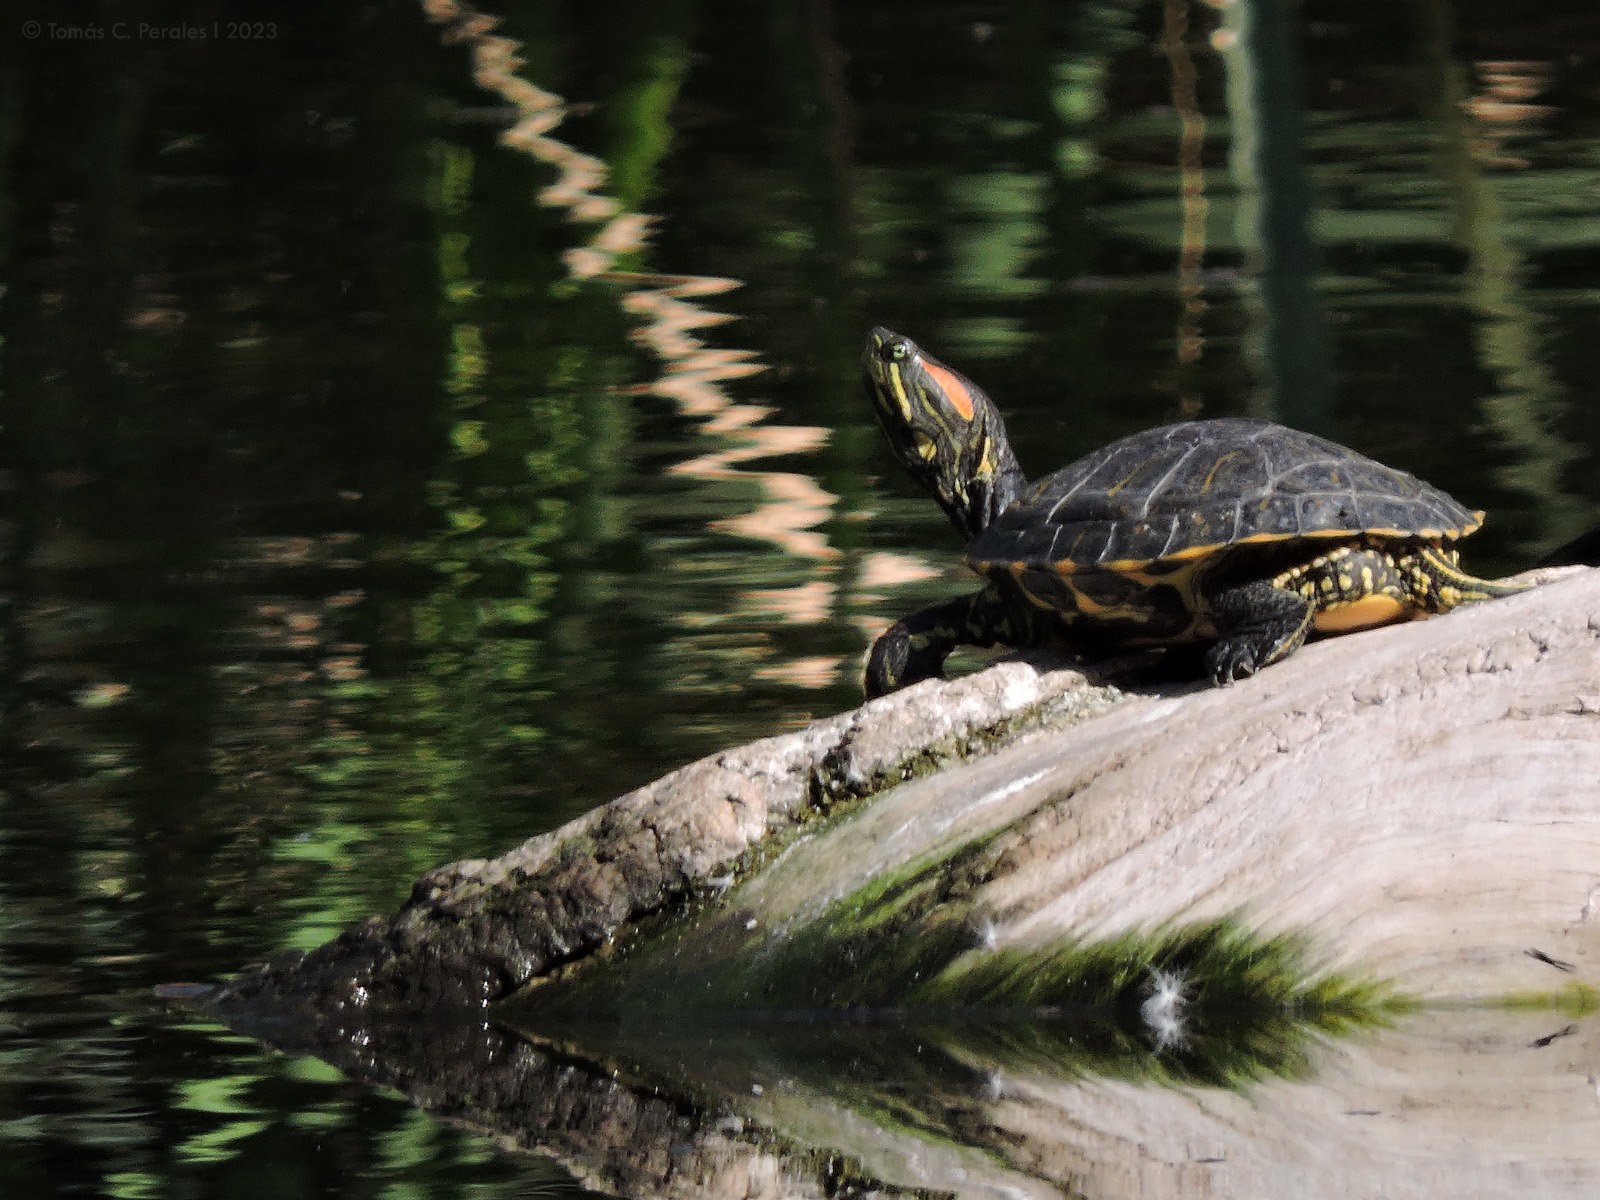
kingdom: Animalia
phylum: Chordata
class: Testudines
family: Emydidae
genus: Trachemys
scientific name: Trachemys scripta
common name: Slider
